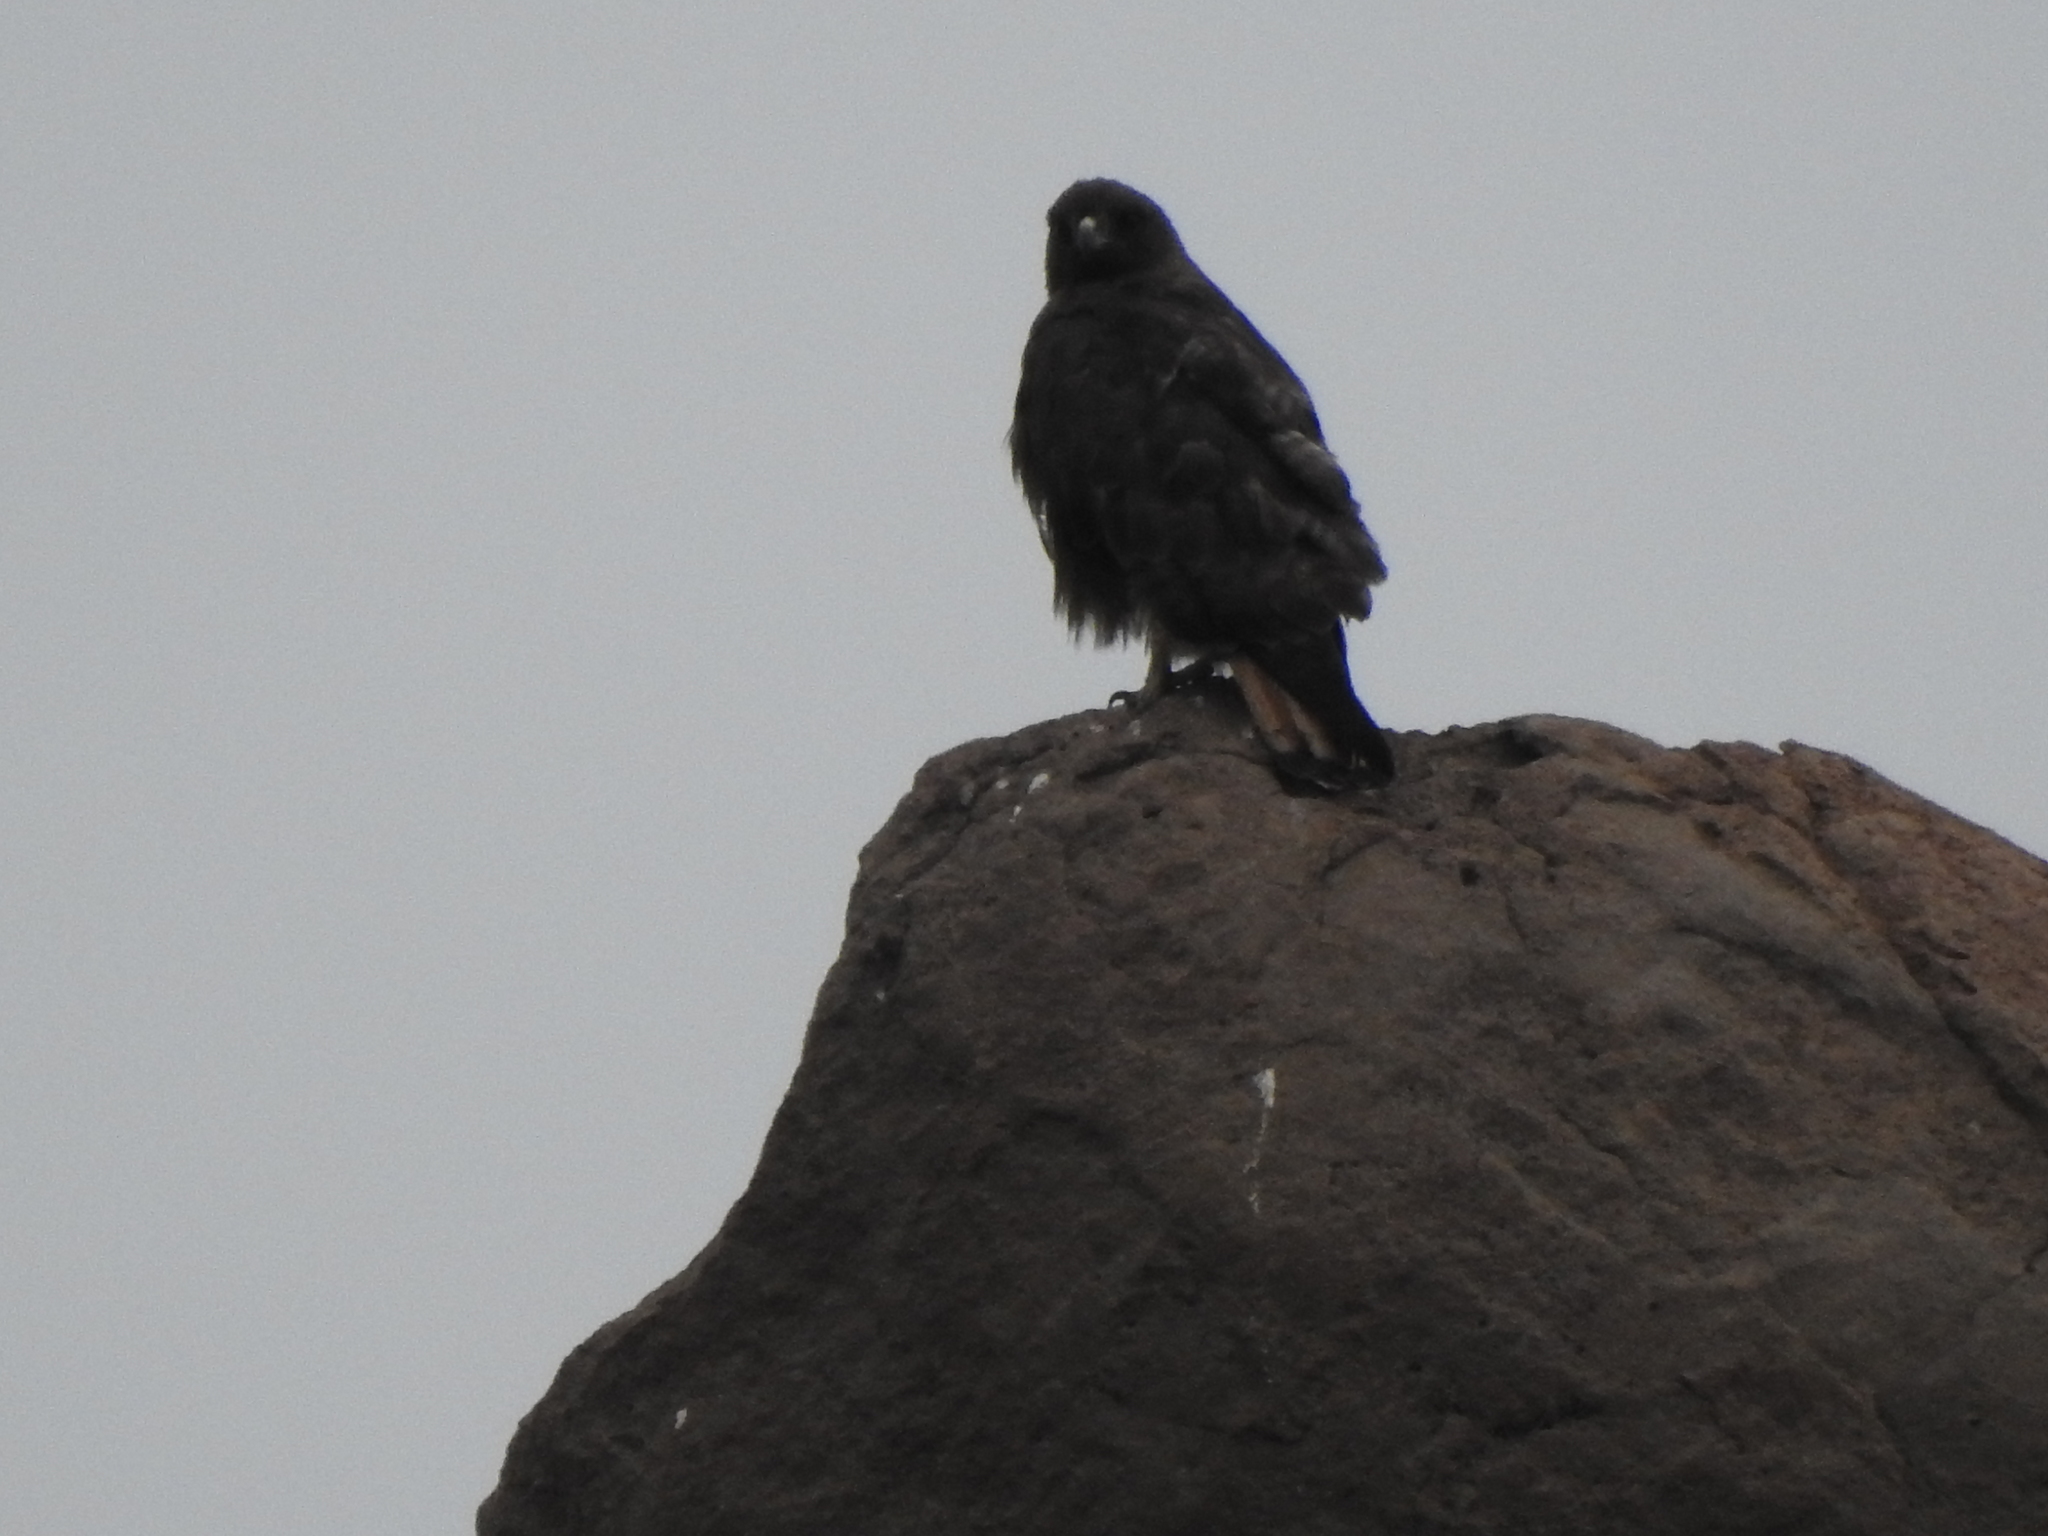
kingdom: Animalia
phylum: Chordata
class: Aves
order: Accipitriformes
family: Accipitridae
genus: Buteo
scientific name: Buteo jamaicensis
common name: Red-tailed hawk
